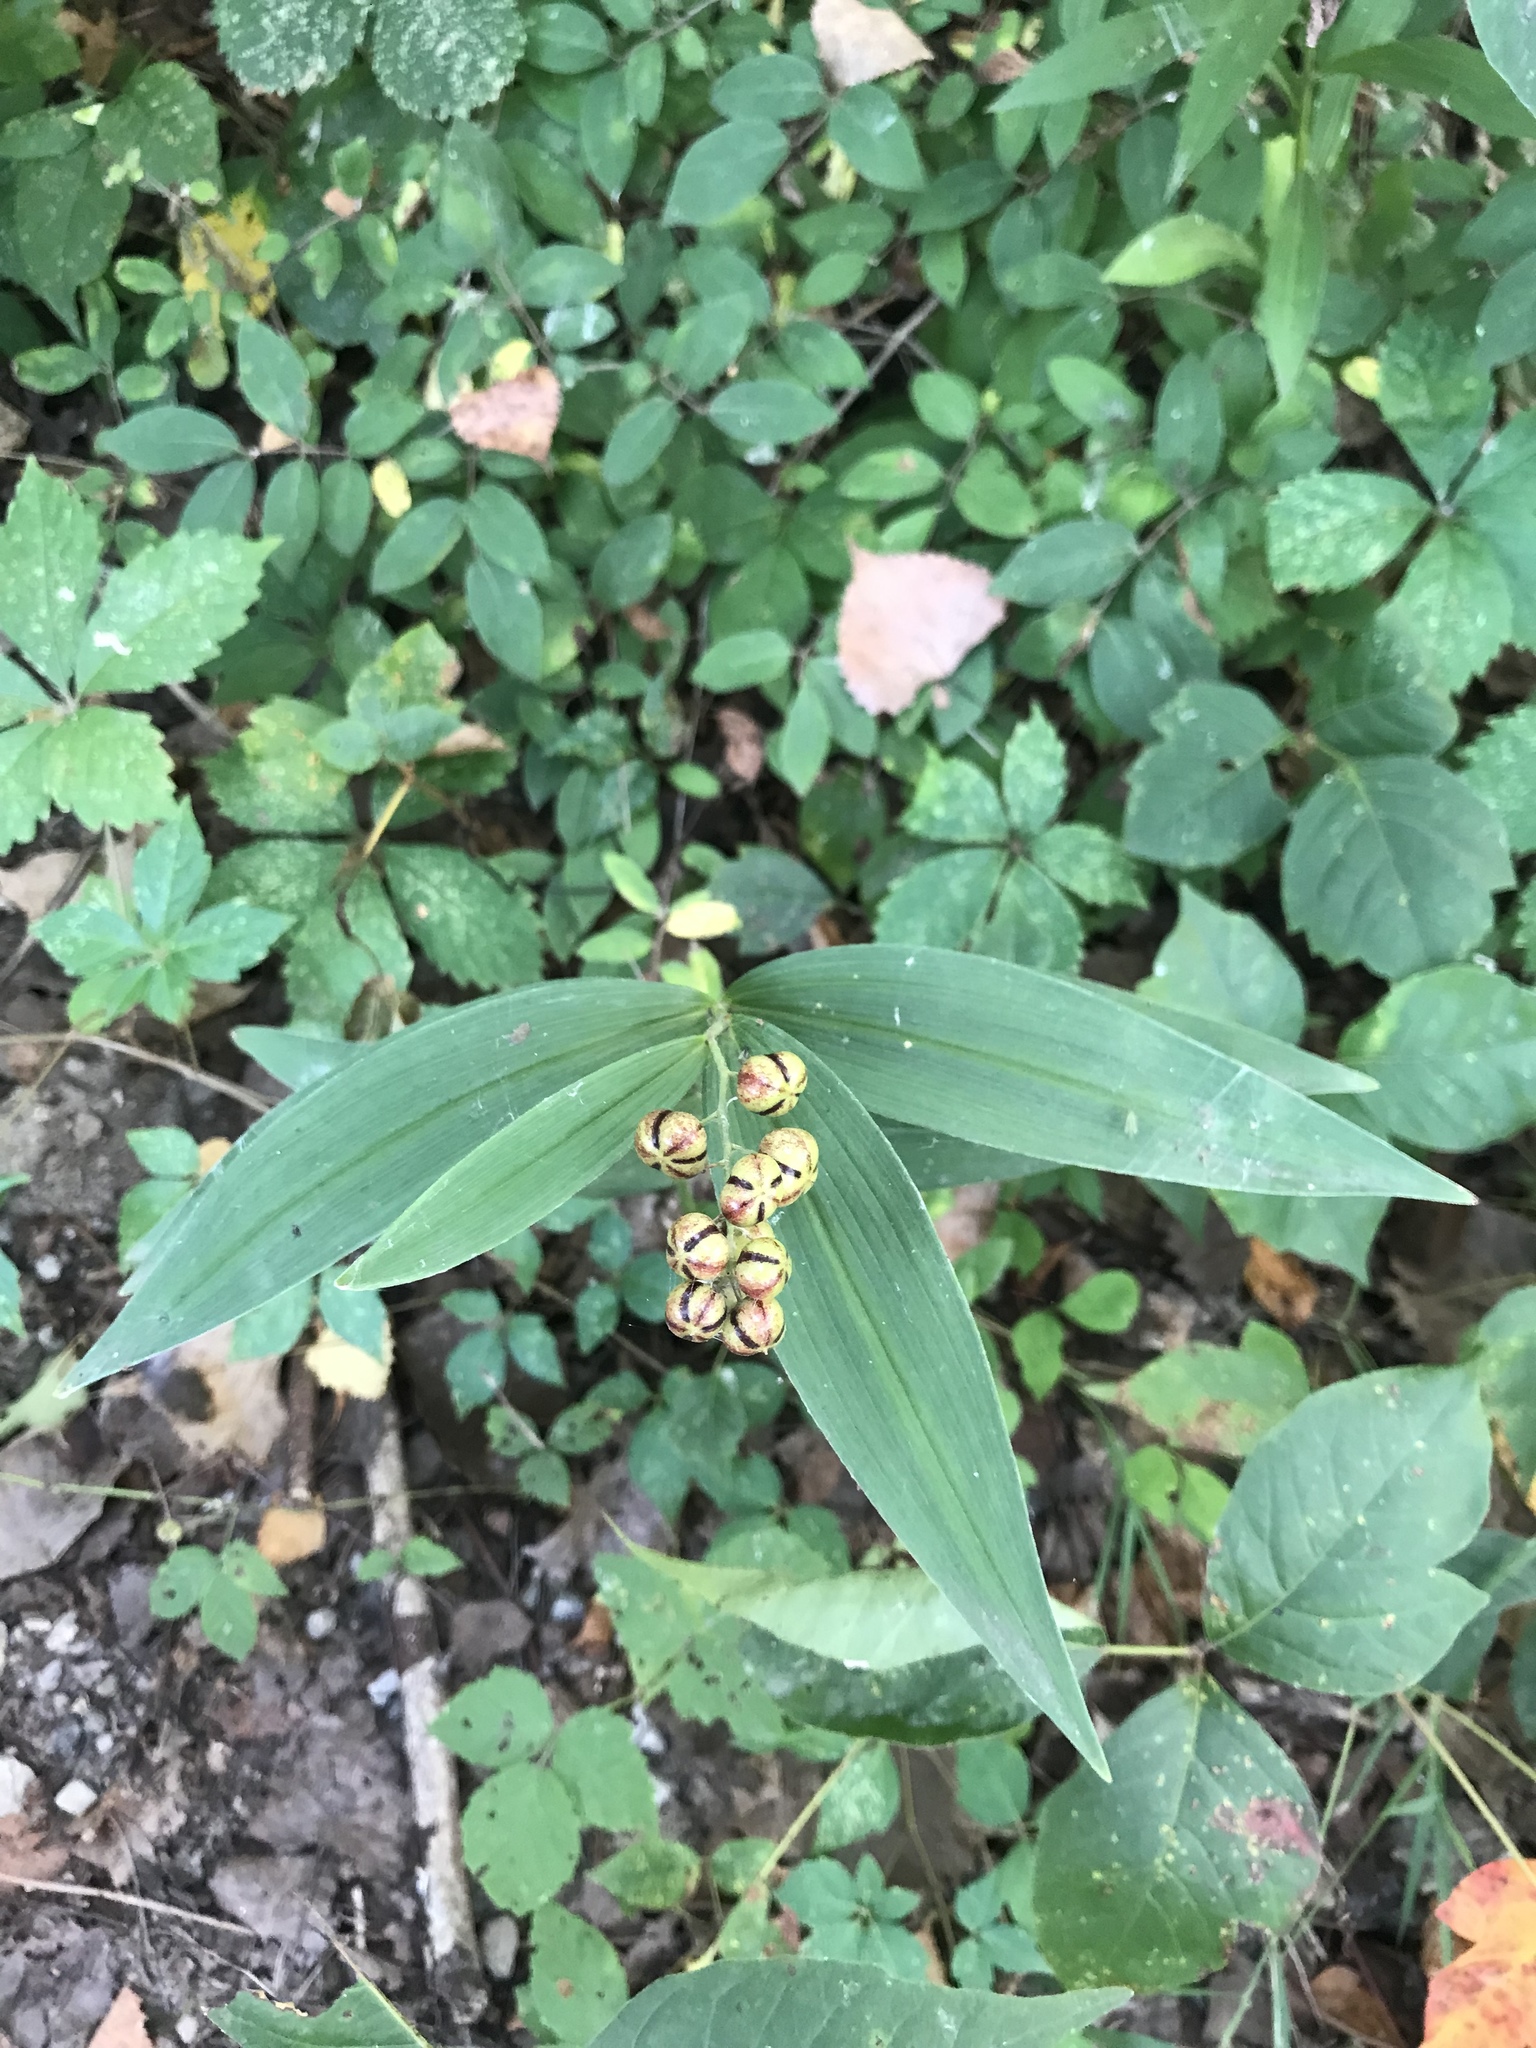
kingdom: Plantae
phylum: Tracheophyta
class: Liliopsida
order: Asparagales
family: Asparagaceae
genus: Maianthemum
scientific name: Maianthemum stellatum
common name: Little false solomon's seal
